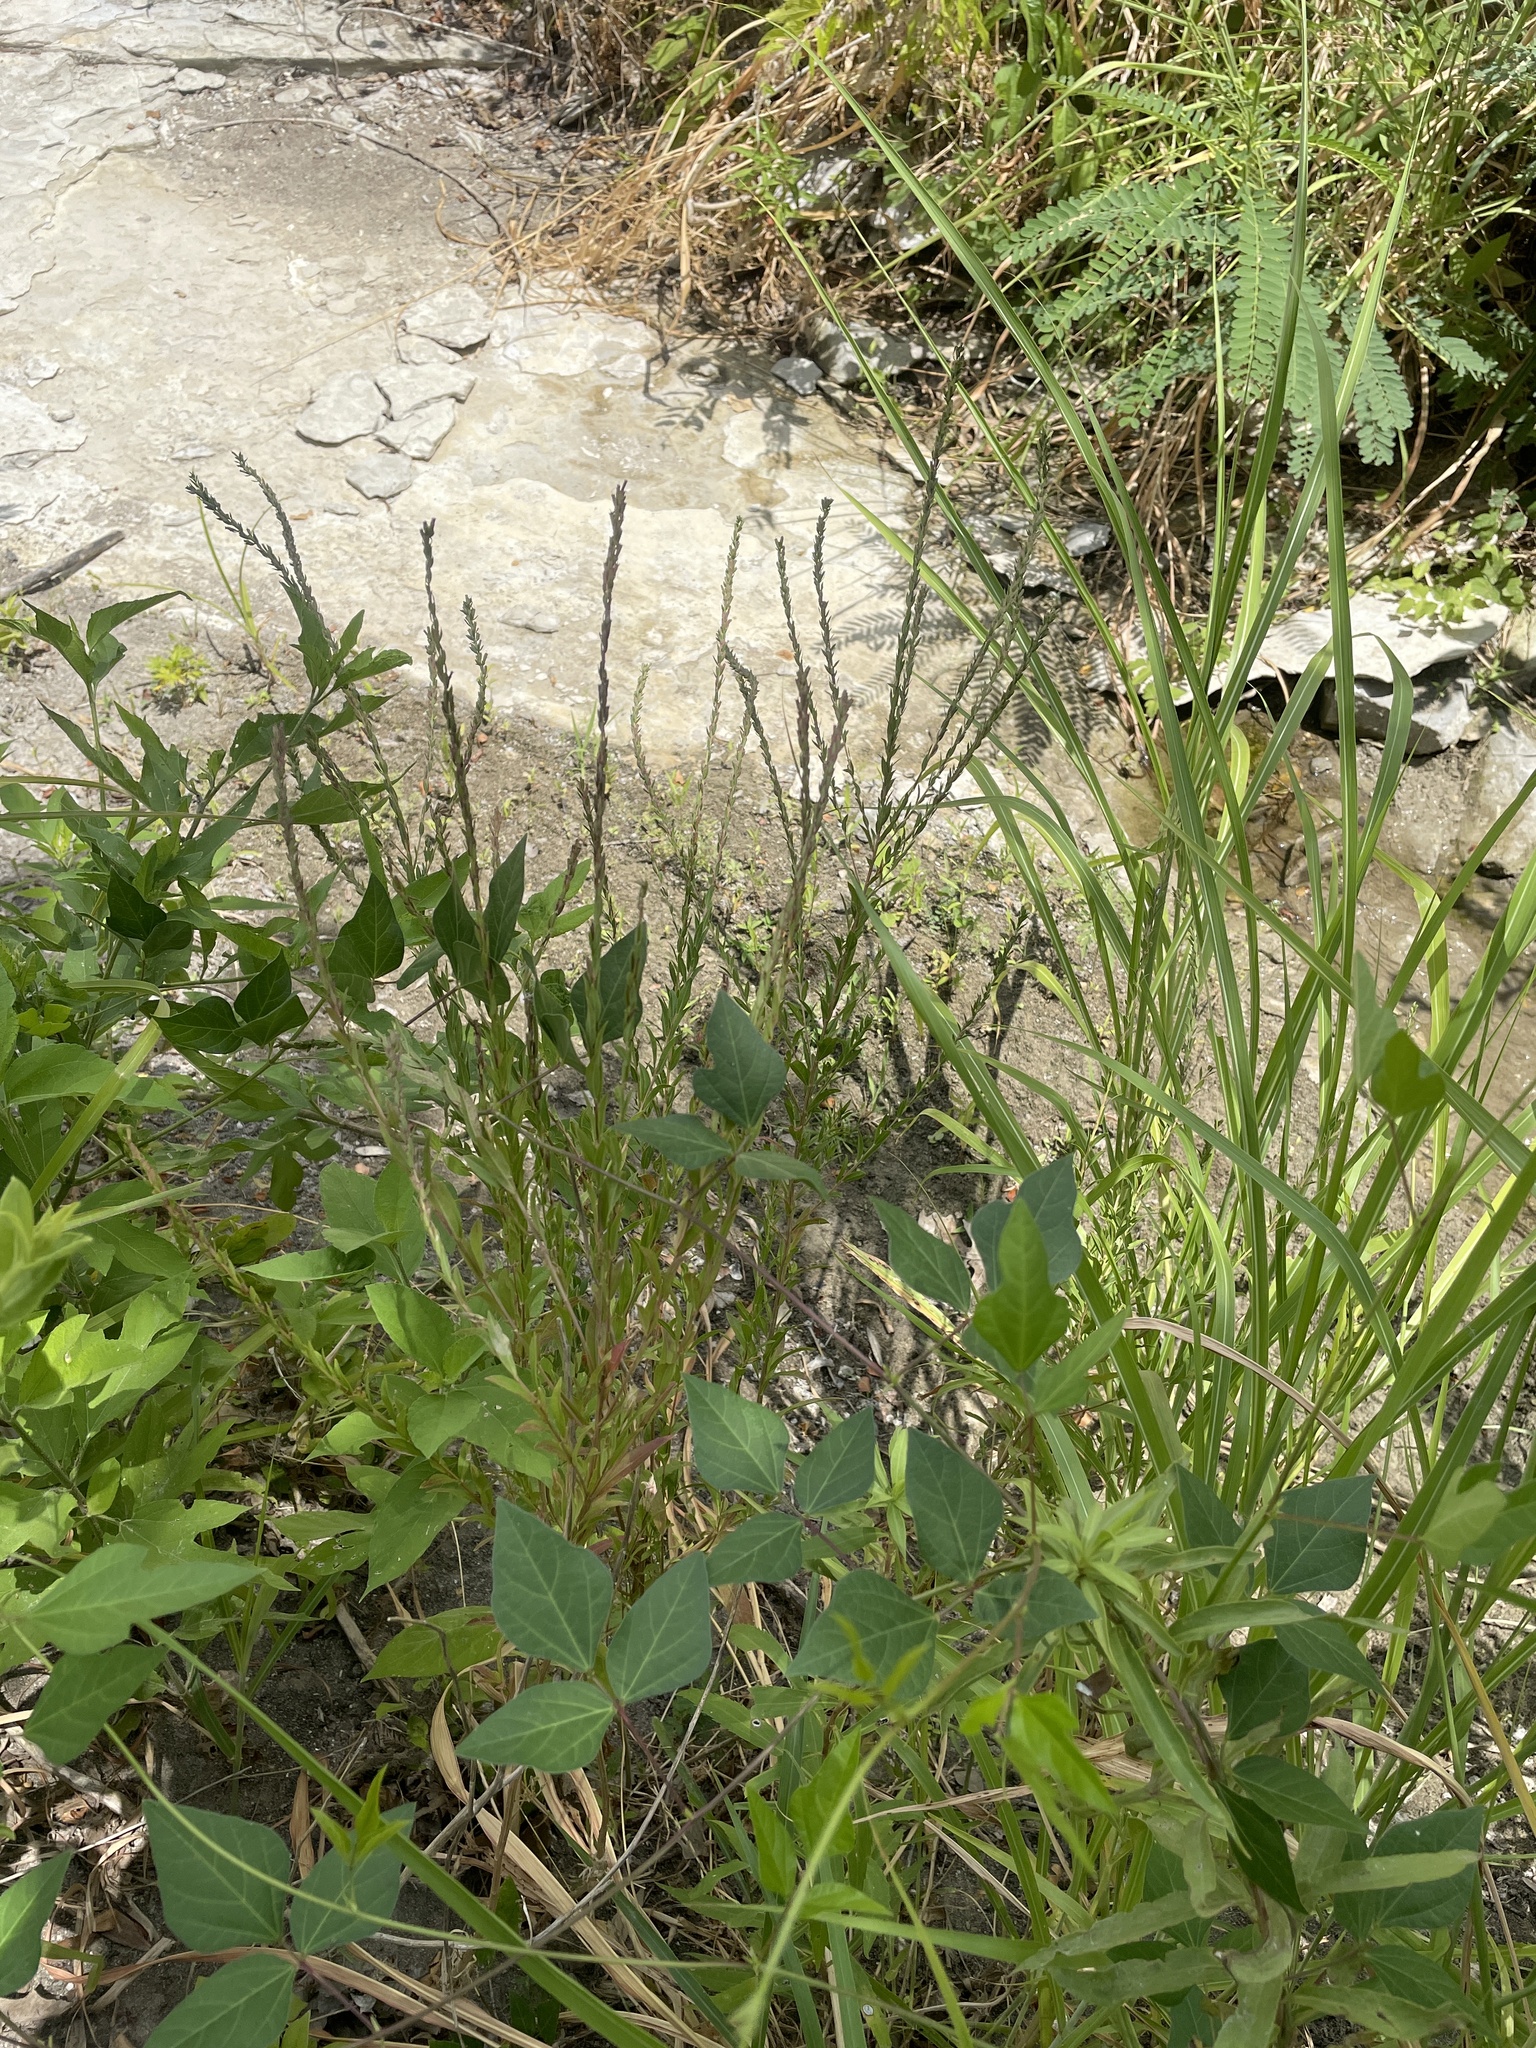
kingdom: Plantae
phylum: Tracheophyta
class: Magnoliopsida
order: Myrtales
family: Lythraceae
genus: Lythrum
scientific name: Lythrum alatum
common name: Winged loosestrife
